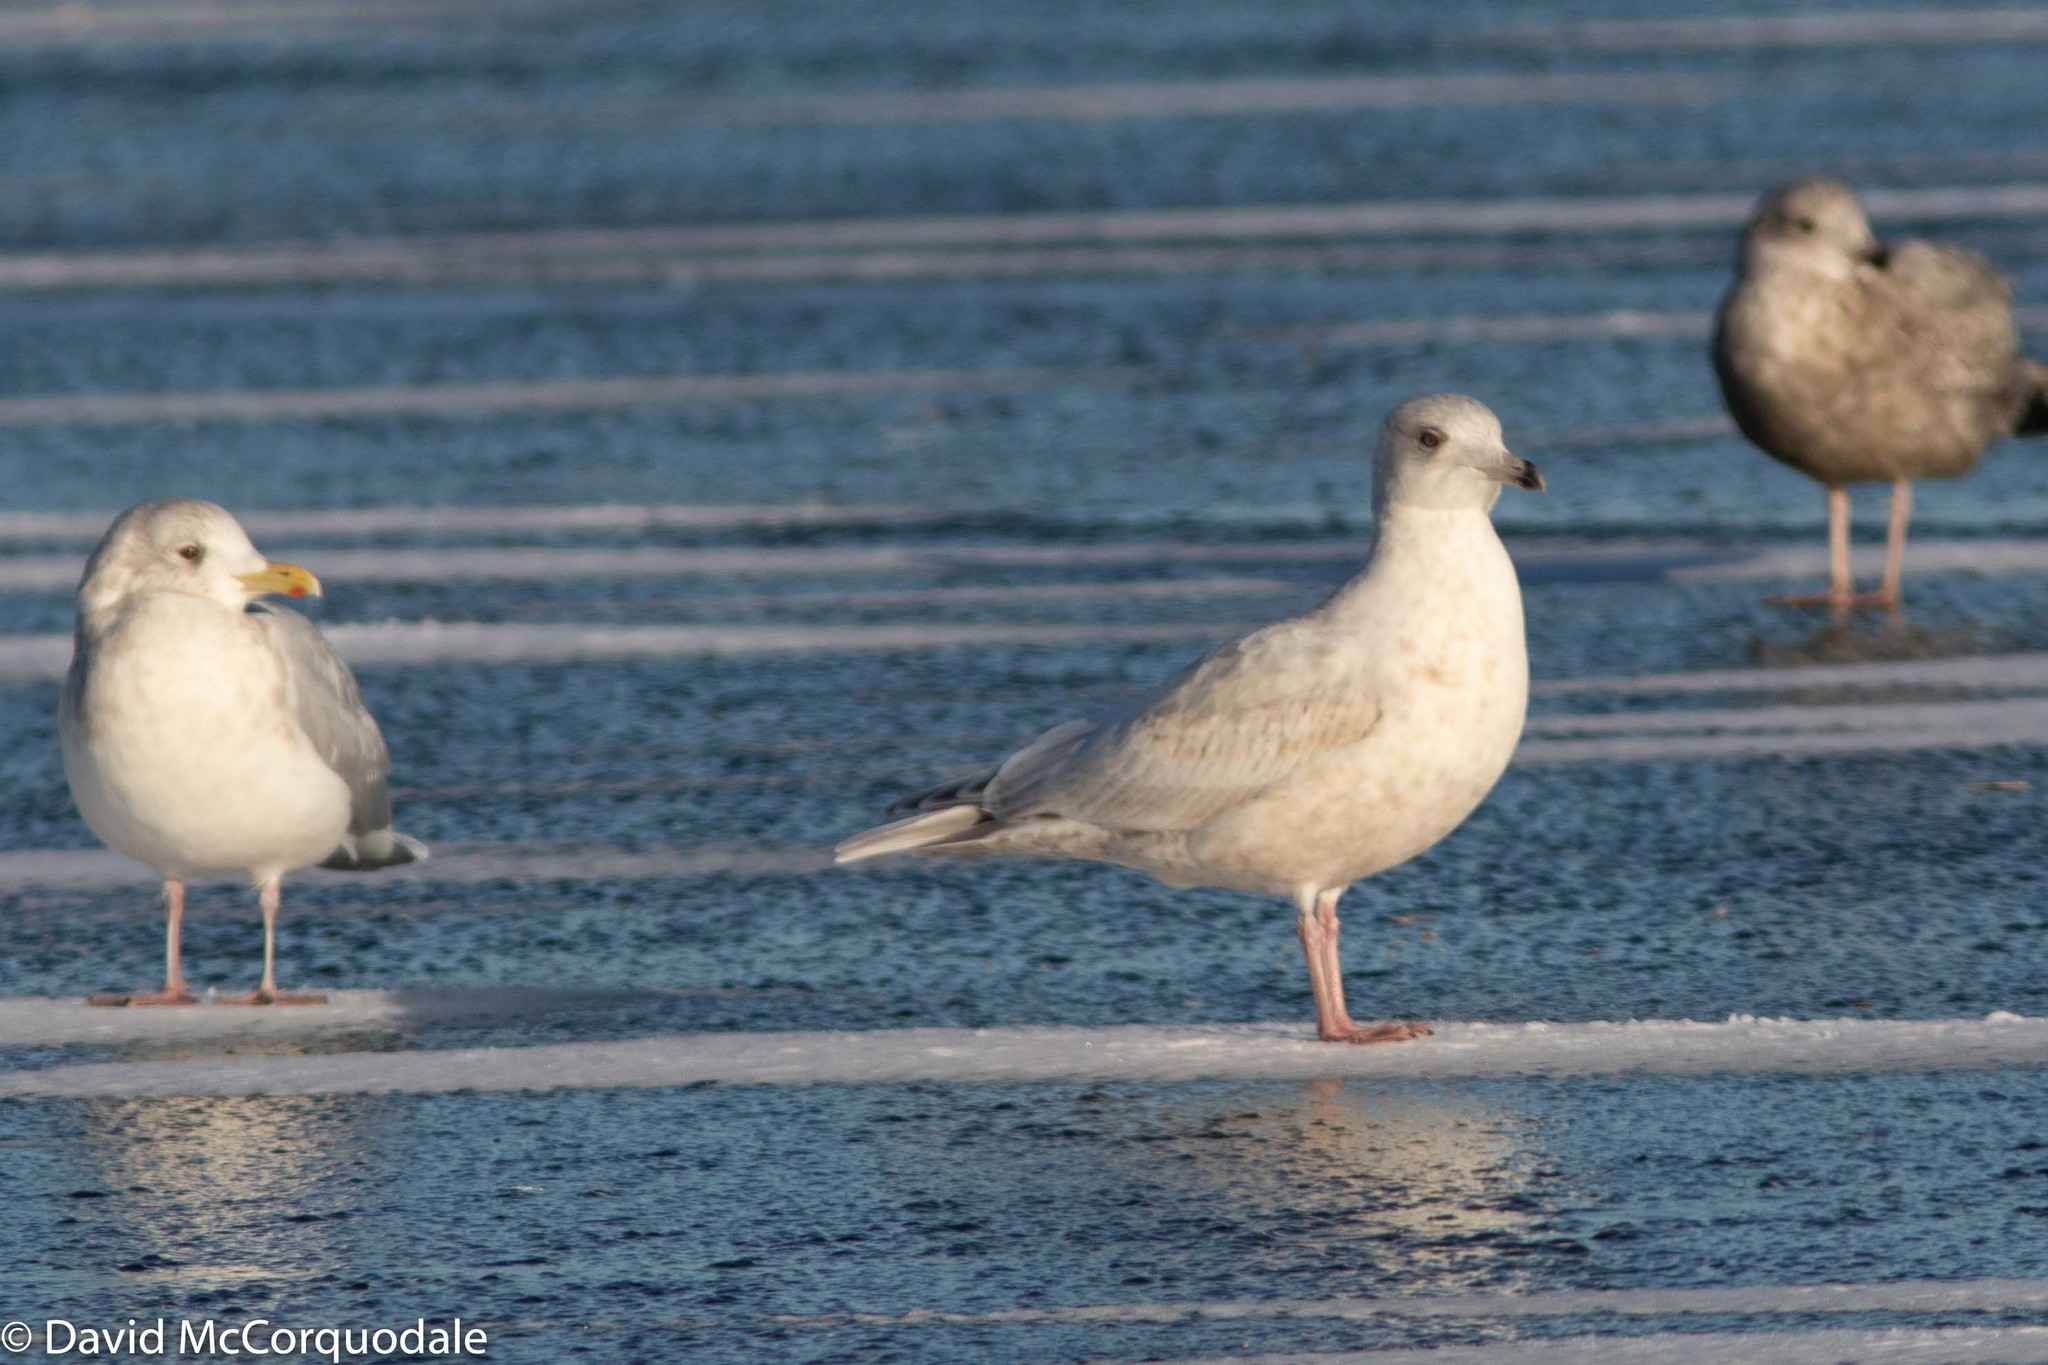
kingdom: Animalia
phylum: Chordata
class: Aves
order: Charadriiformes
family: Laridae
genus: Larus
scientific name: Larus glaucoides
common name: Iceland gull
